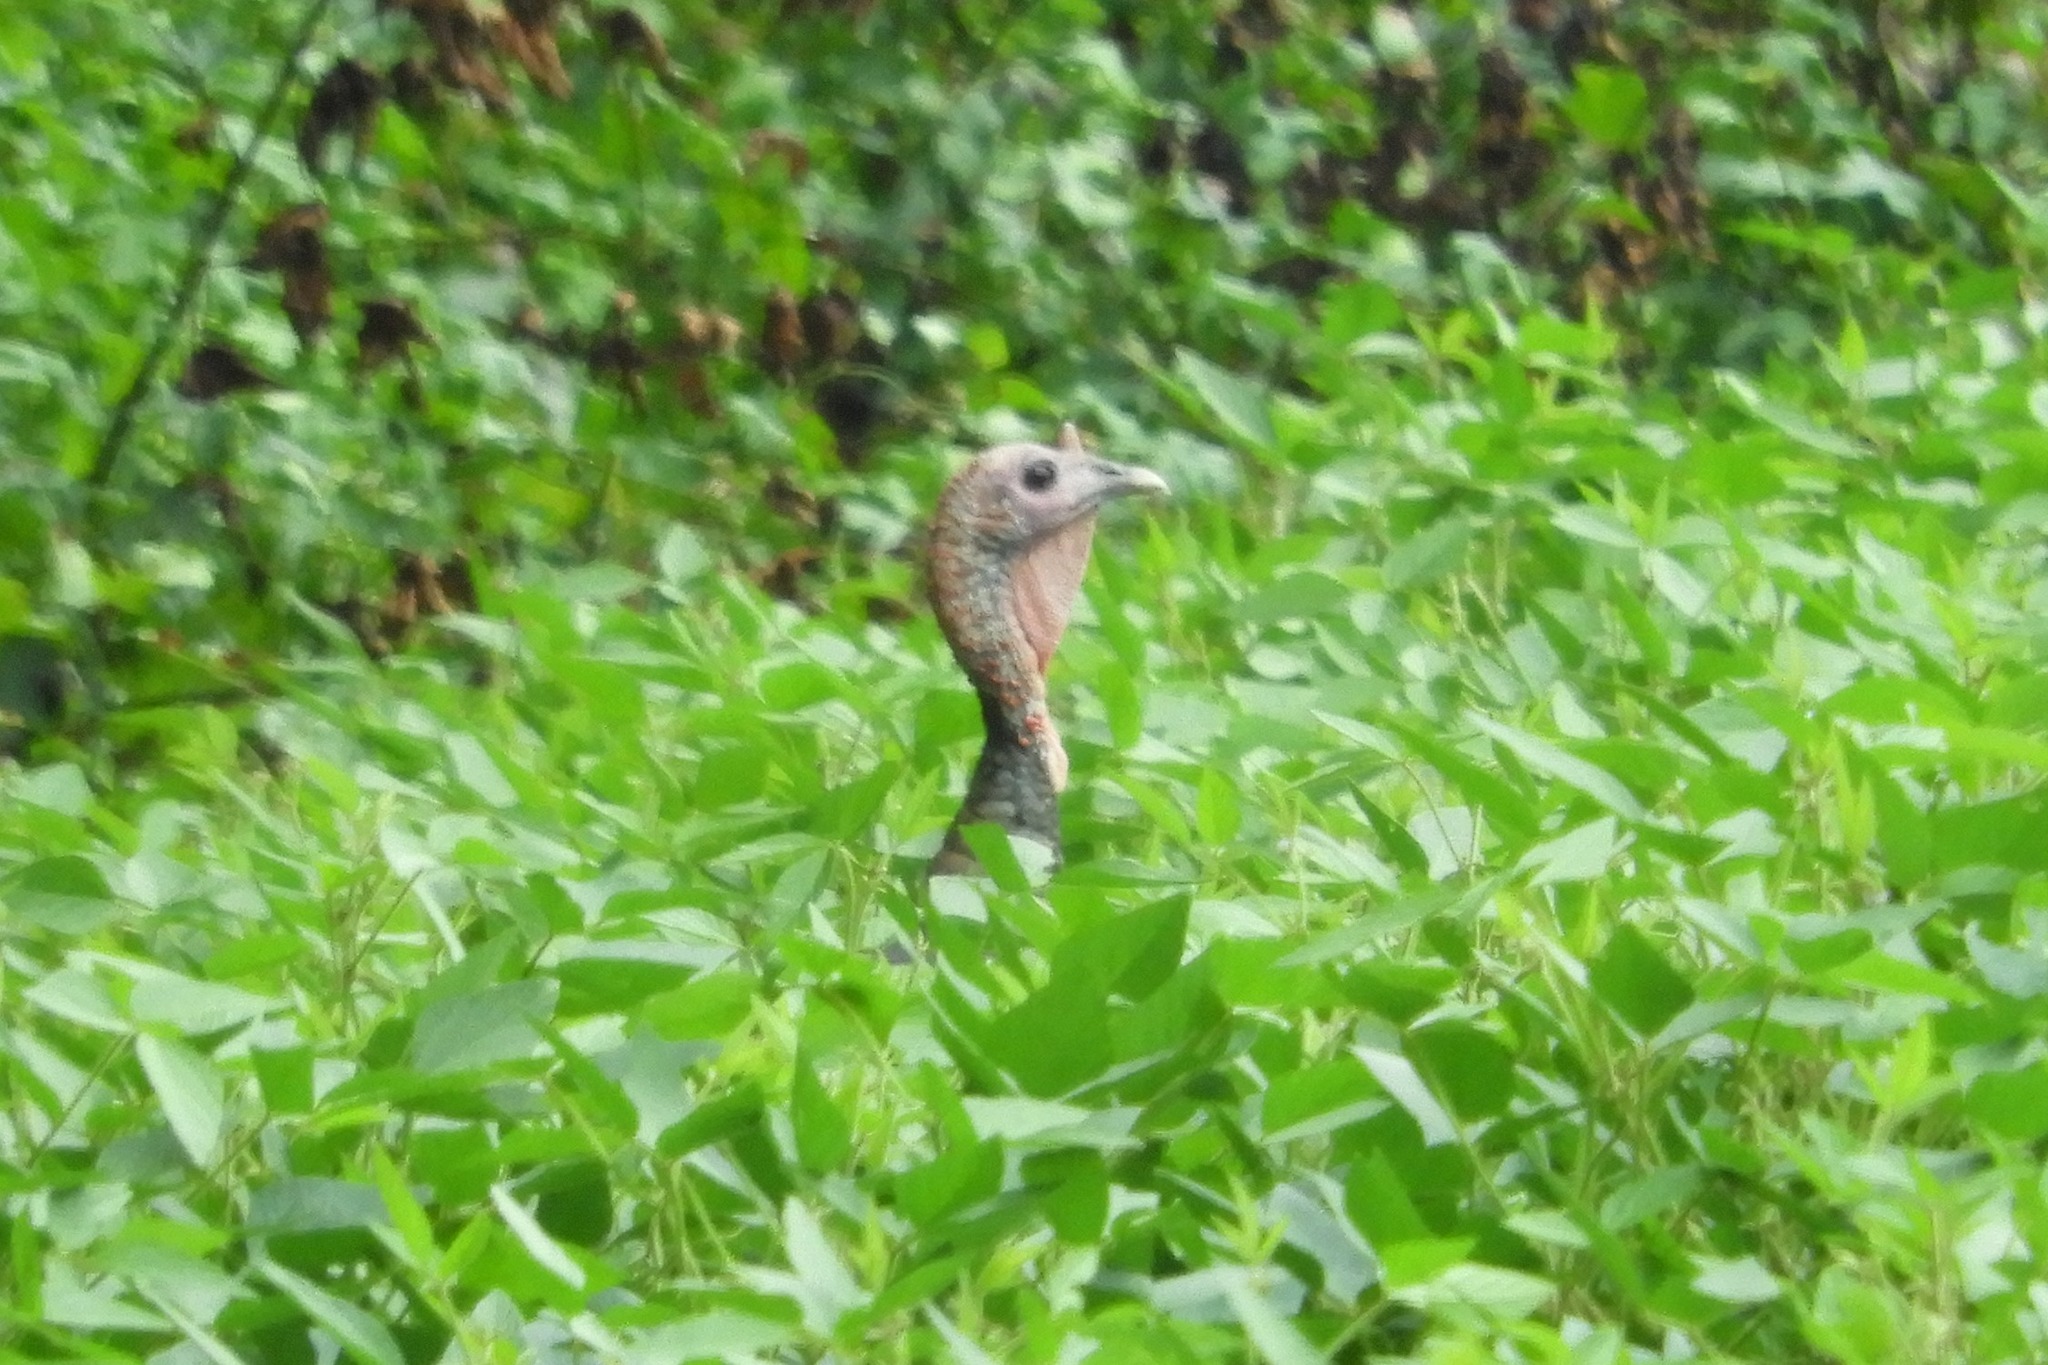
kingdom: Animalia
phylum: Chordata
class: Aves
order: Galliformes
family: Phasianidae
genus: Meleagris
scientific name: Meleagris gallopavo
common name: Wild turkey
